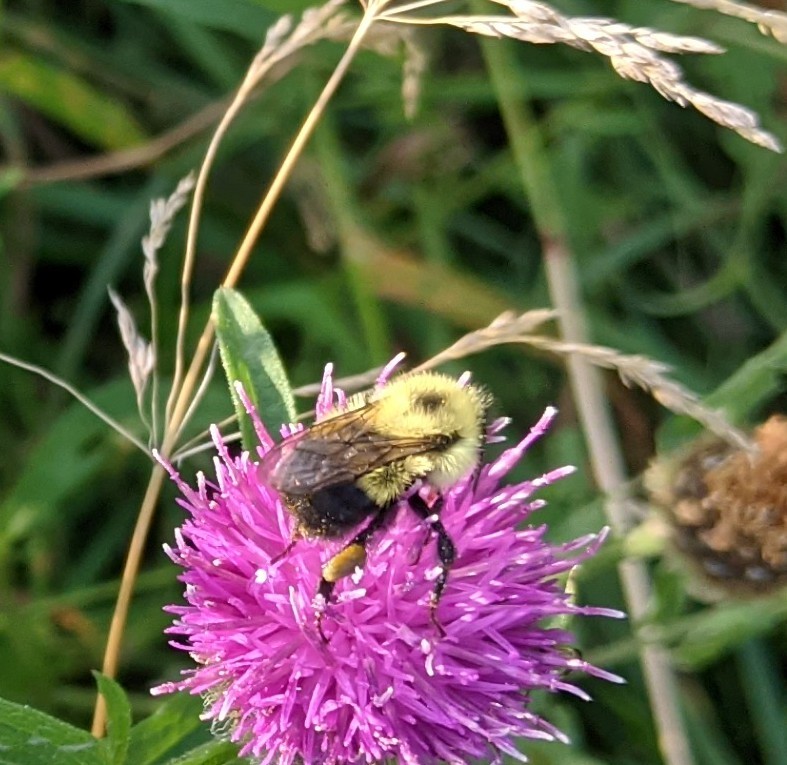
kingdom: Animalia
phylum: Arthropoda
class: Insecta
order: Hymenoptera
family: Apidae
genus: Bombus
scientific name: Bombus vagans
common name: Half-black bumble bee
